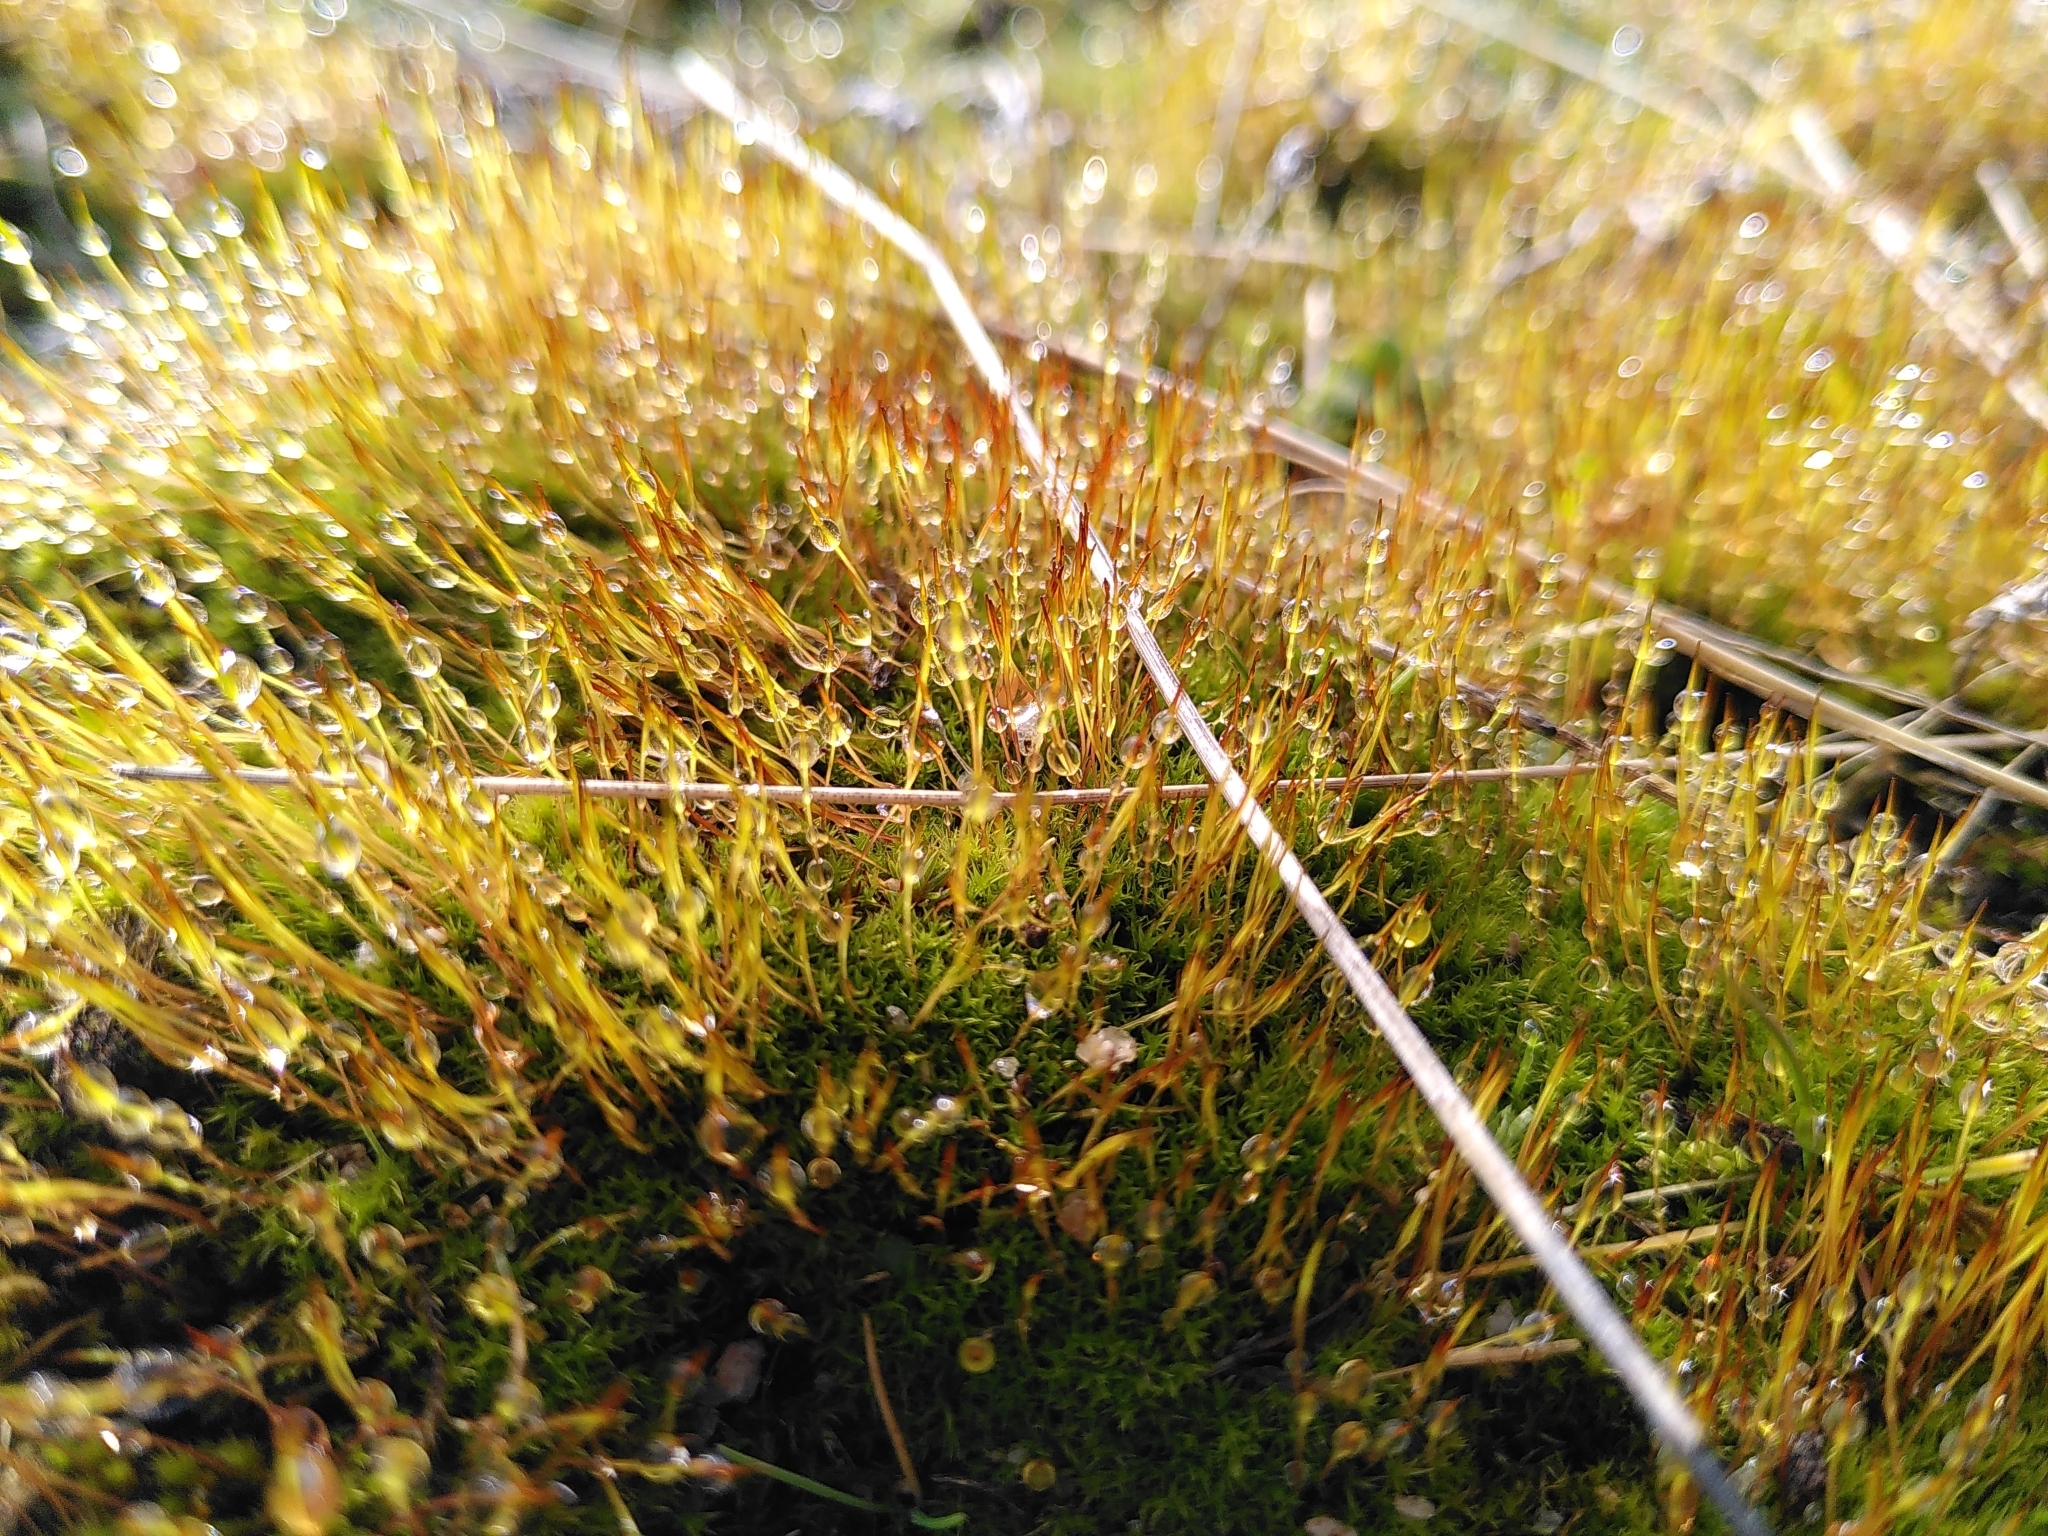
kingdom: Plantae
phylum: Bryophyta
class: Bryopsida
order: Dicranales
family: Ditrichaceae
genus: Ceratodon
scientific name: Ceratodon purpureus
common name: Redshank
